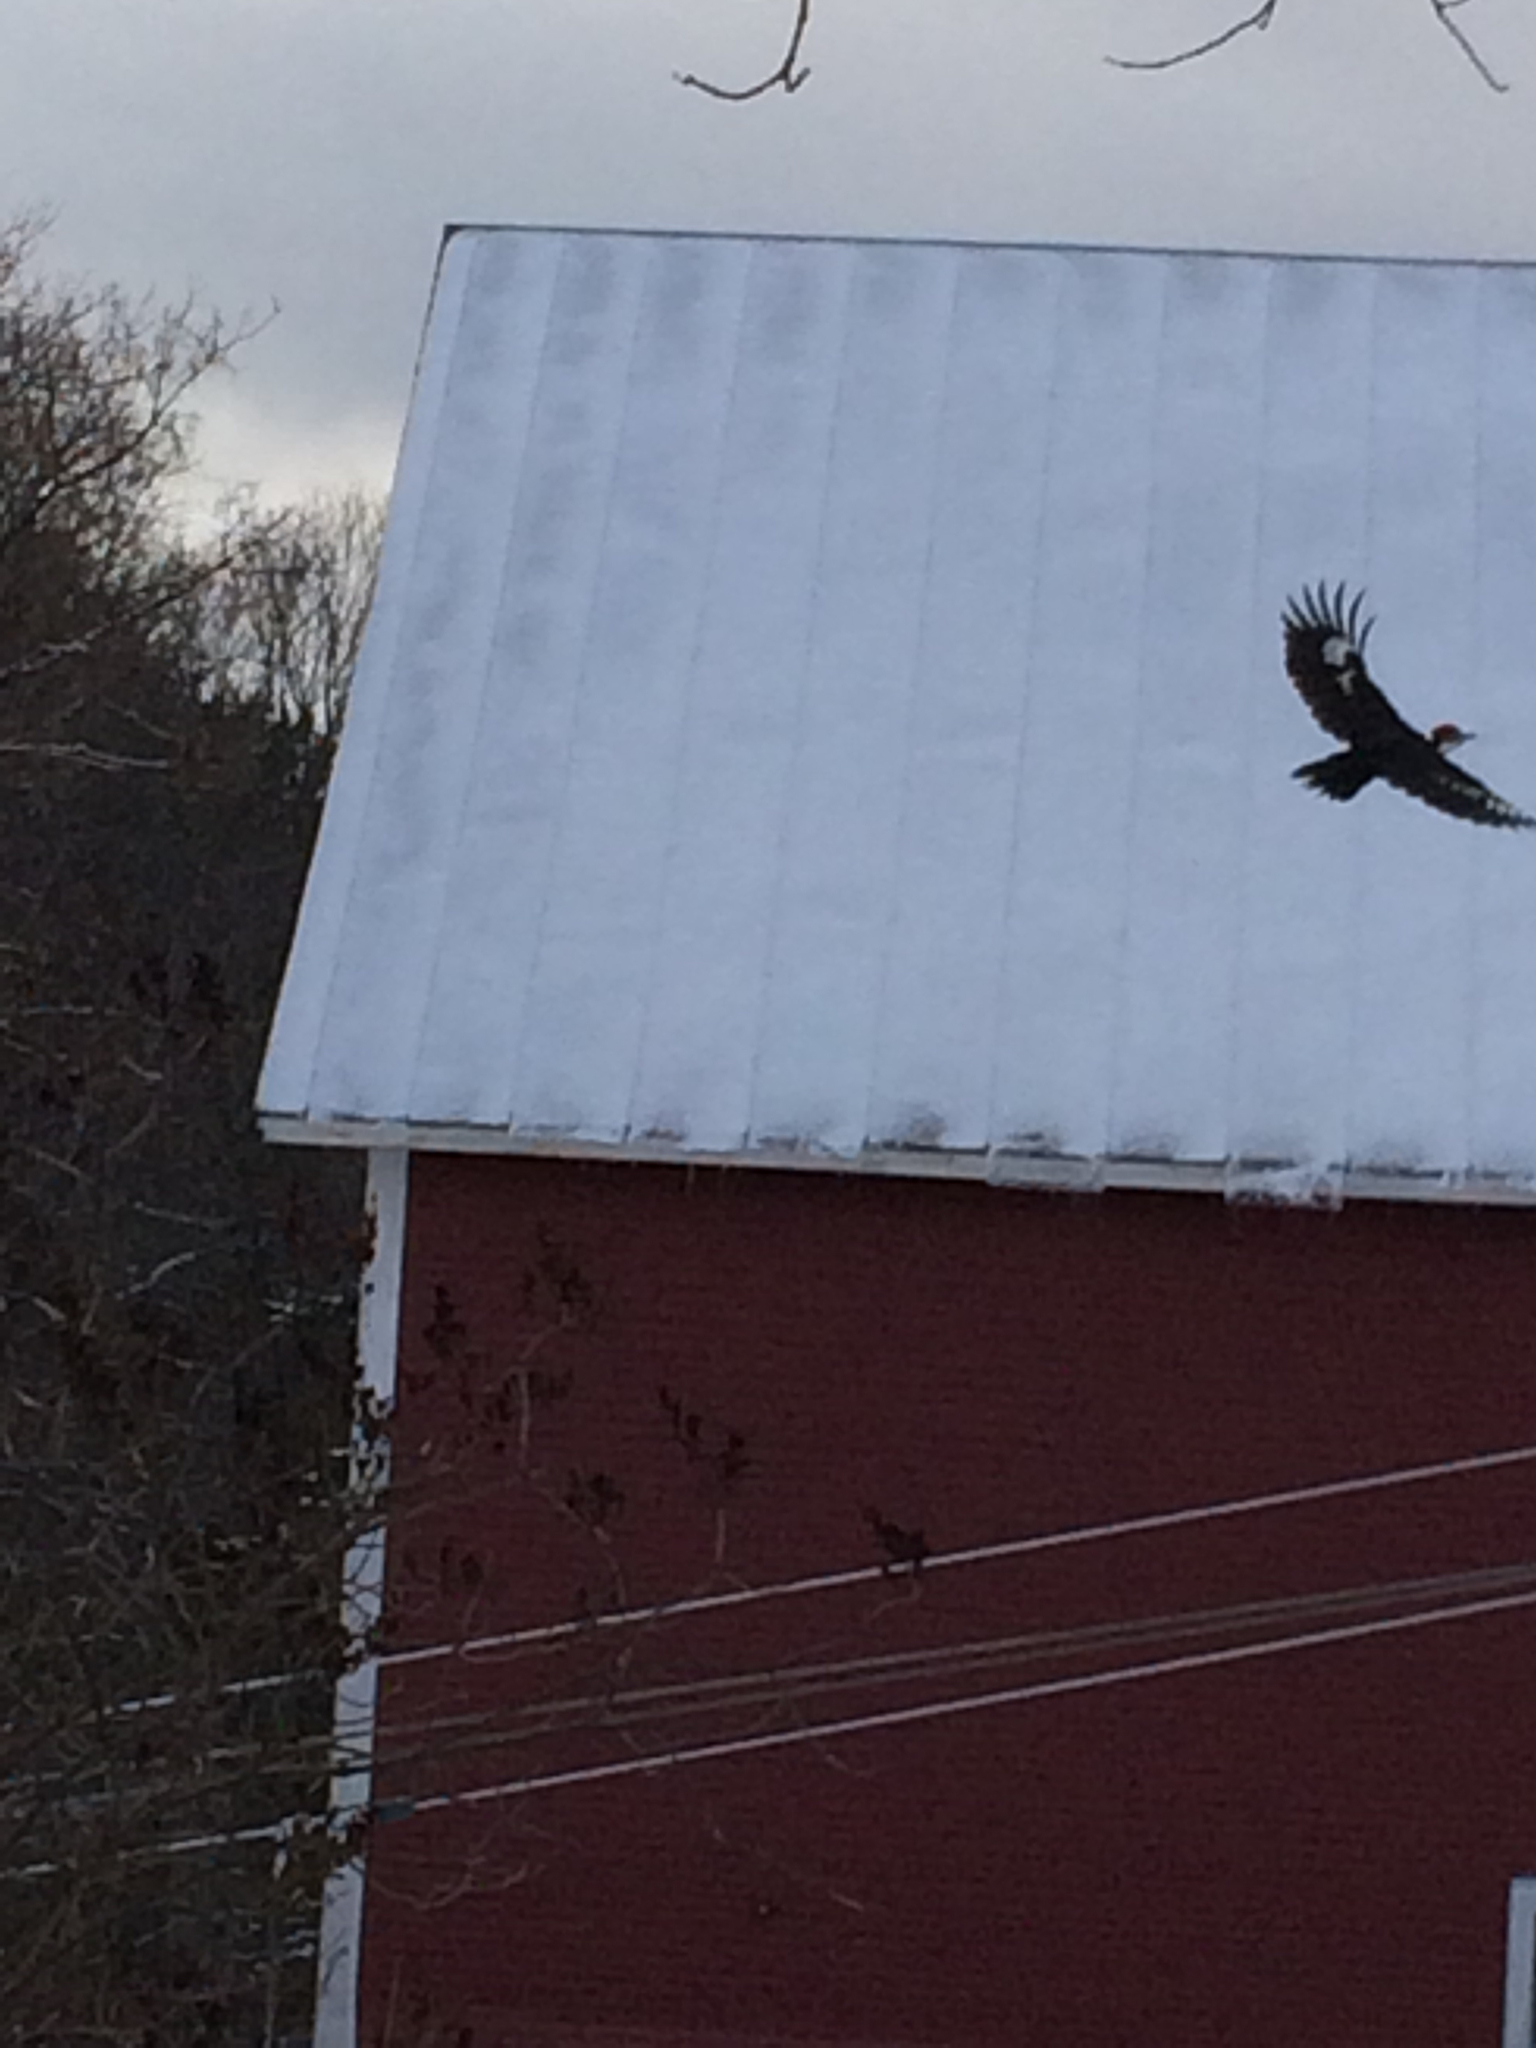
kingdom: Animalia
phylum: Chordata
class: Aves
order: Piciformes
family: Picidae
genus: Dryocopus
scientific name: Dryocopus pileatus
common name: Pileated woodpecker
